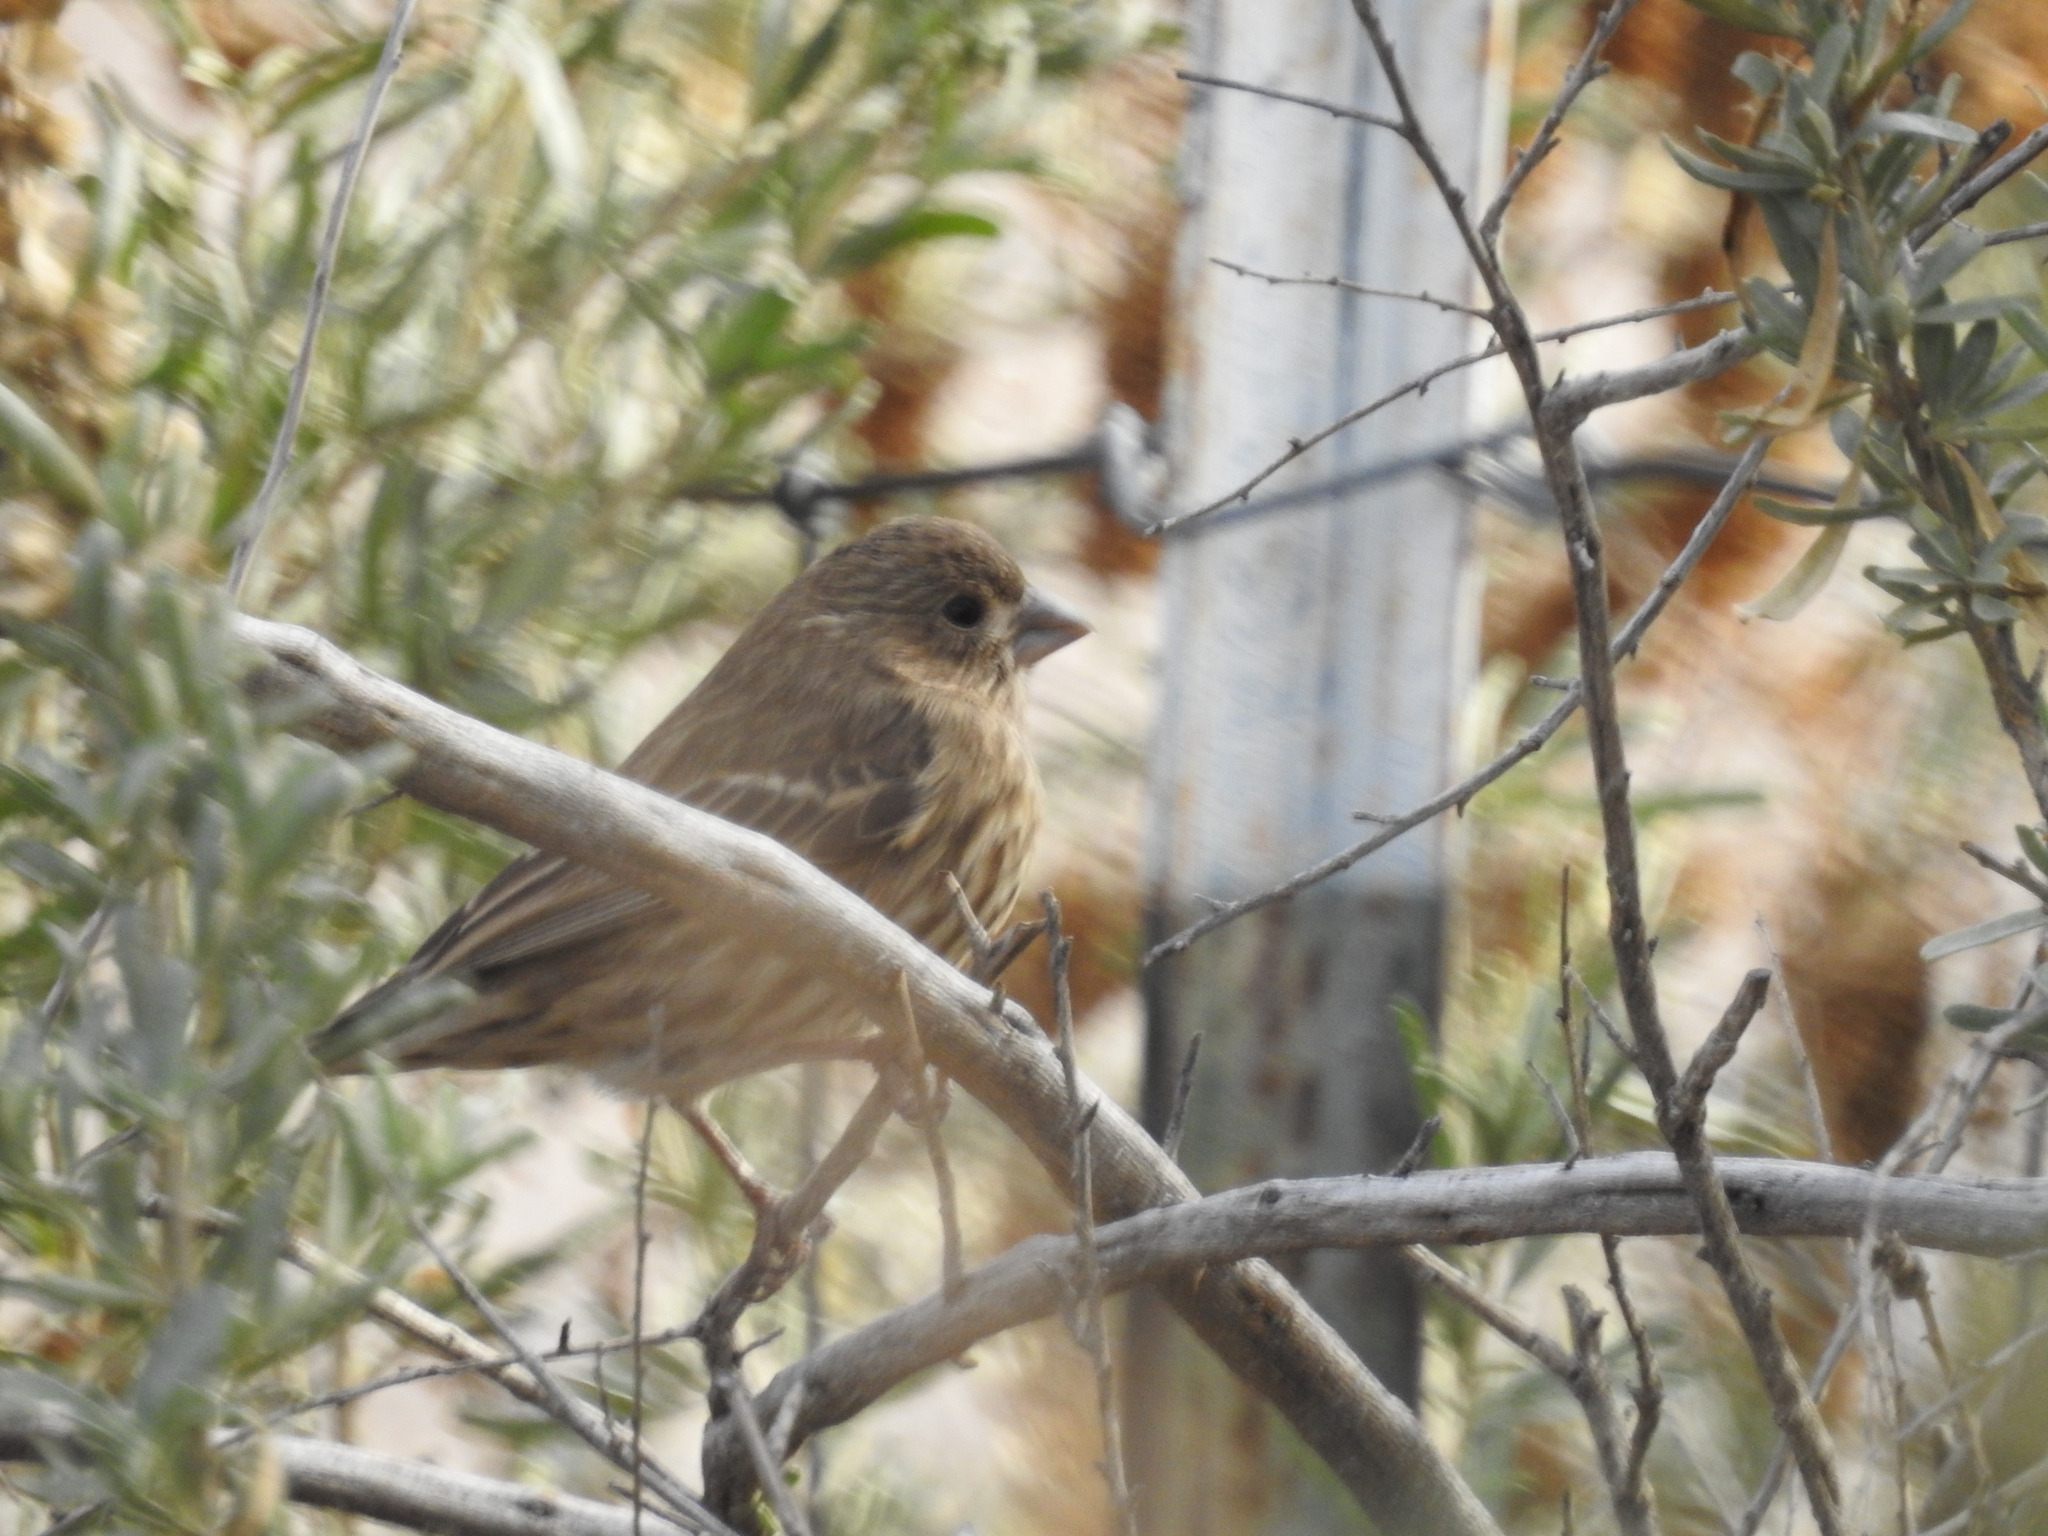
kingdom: Animalia
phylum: Chordata
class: Aves
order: Passeriformes
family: Fringillidae
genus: Haemorhous
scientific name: Haemorhous mexicanus
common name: House finch
